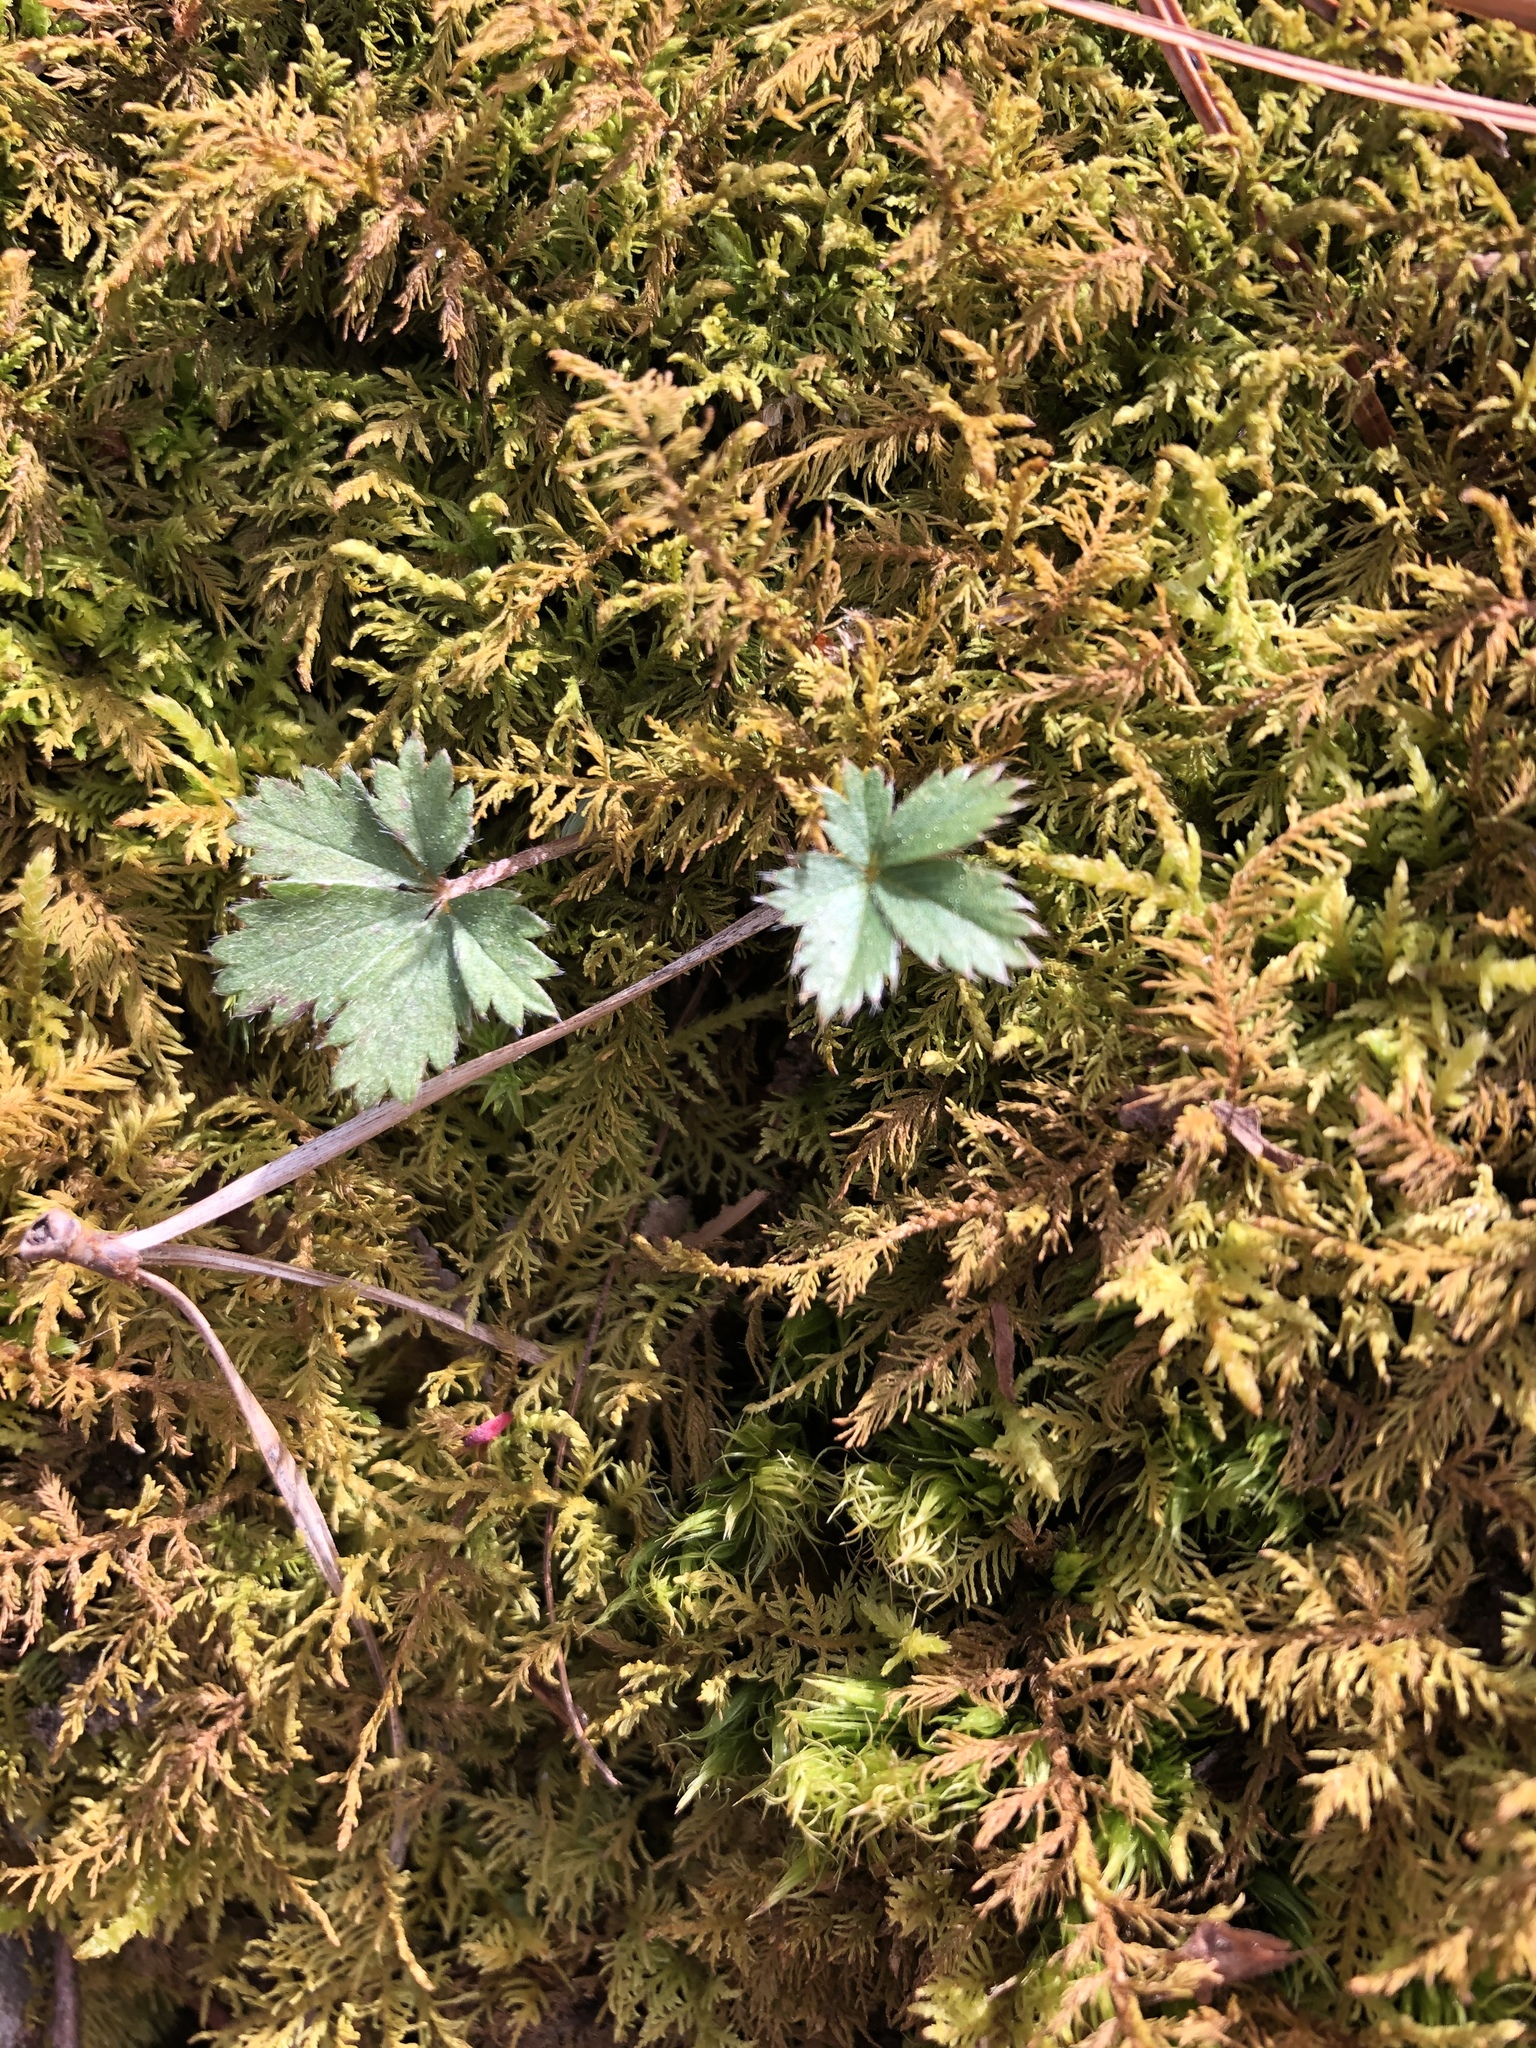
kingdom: Plantae
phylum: Tracheophyta
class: Magnoliopsida
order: Rosales
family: Rosaceae
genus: Potentilla
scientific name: Potentilla canadensis
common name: Canada cinquefoil
